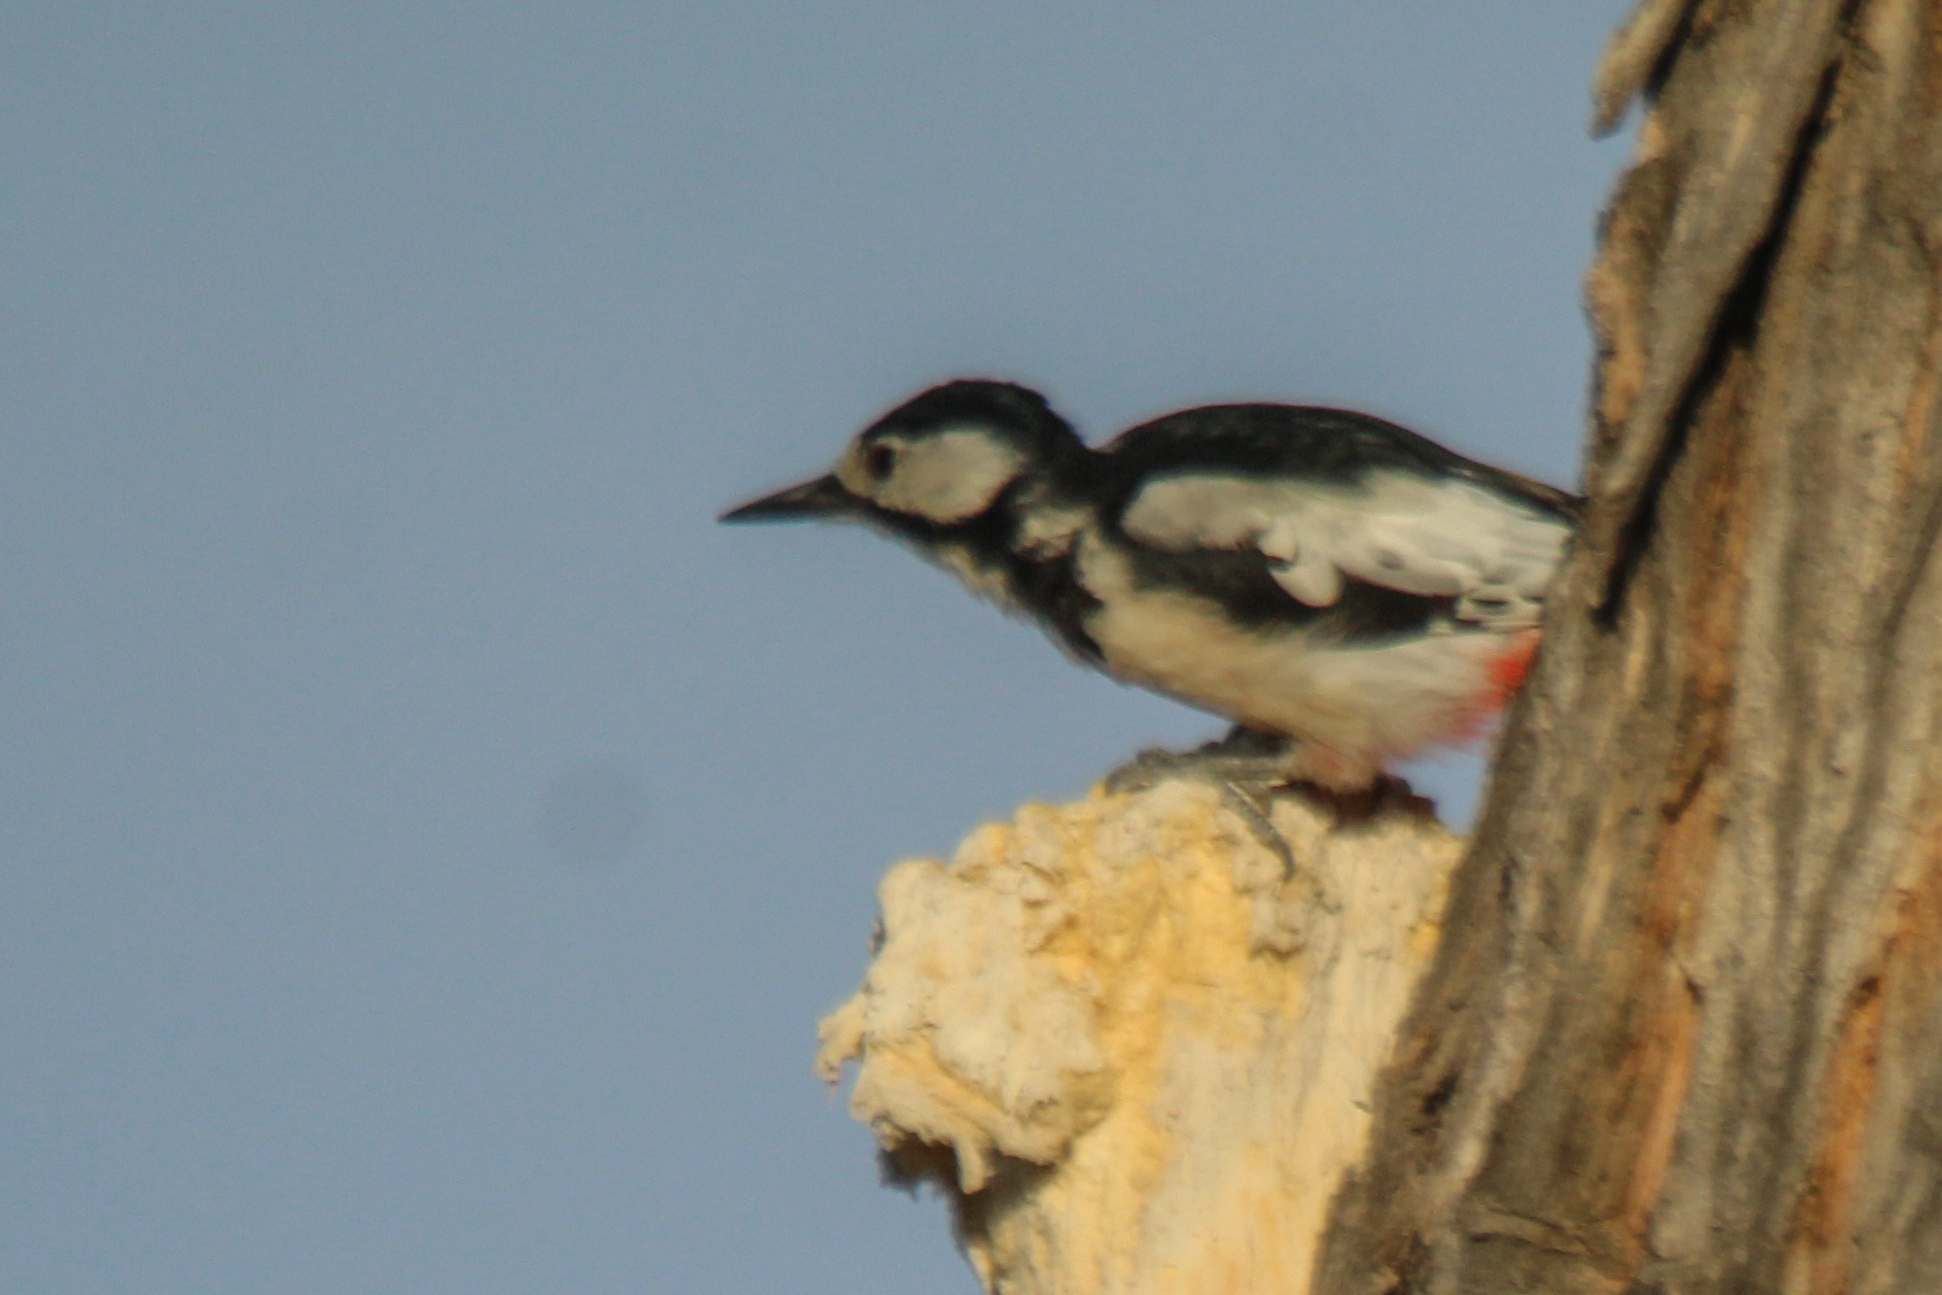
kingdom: Animalia
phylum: Chordata
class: Aves
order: Piciformes
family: Picidae
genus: Dendrocopos
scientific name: Dendrocopos leucopterus
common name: White-winged woodpecker
